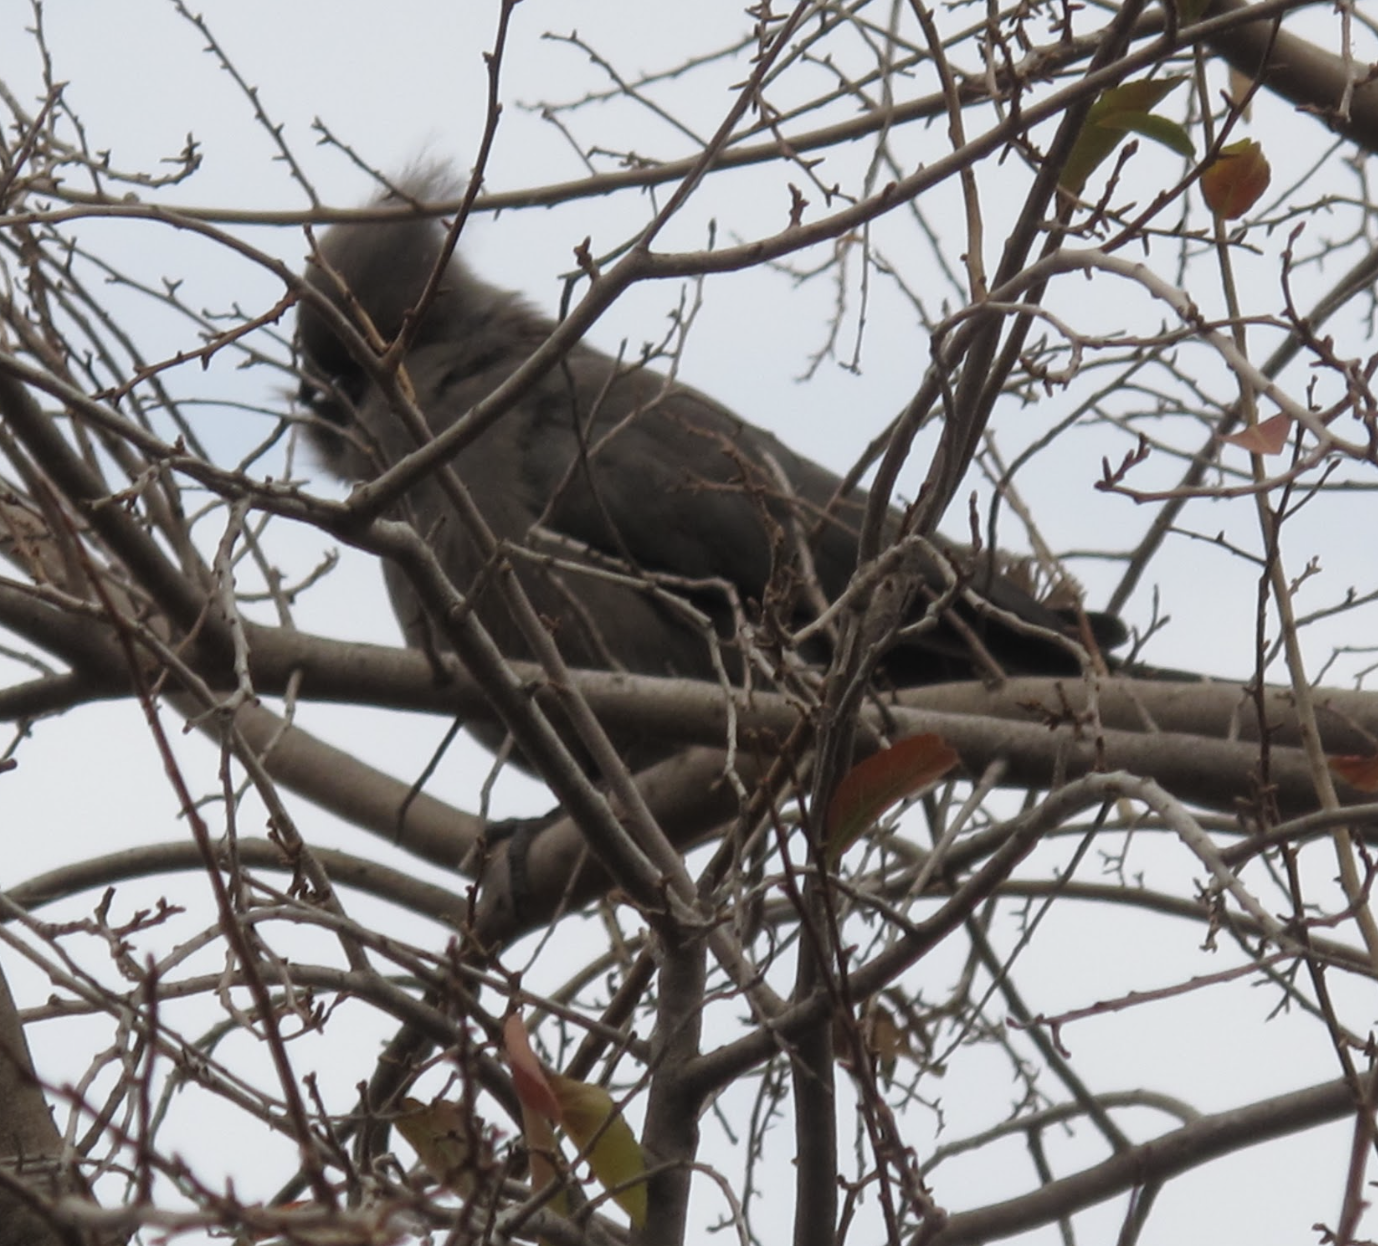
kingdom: Animalia
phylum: Chordata
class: Aves
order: Musophagiformes
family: Musophagidae
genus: Corythaixoides
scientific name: Corythaixoides concolor
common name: Grey go-away-bird
